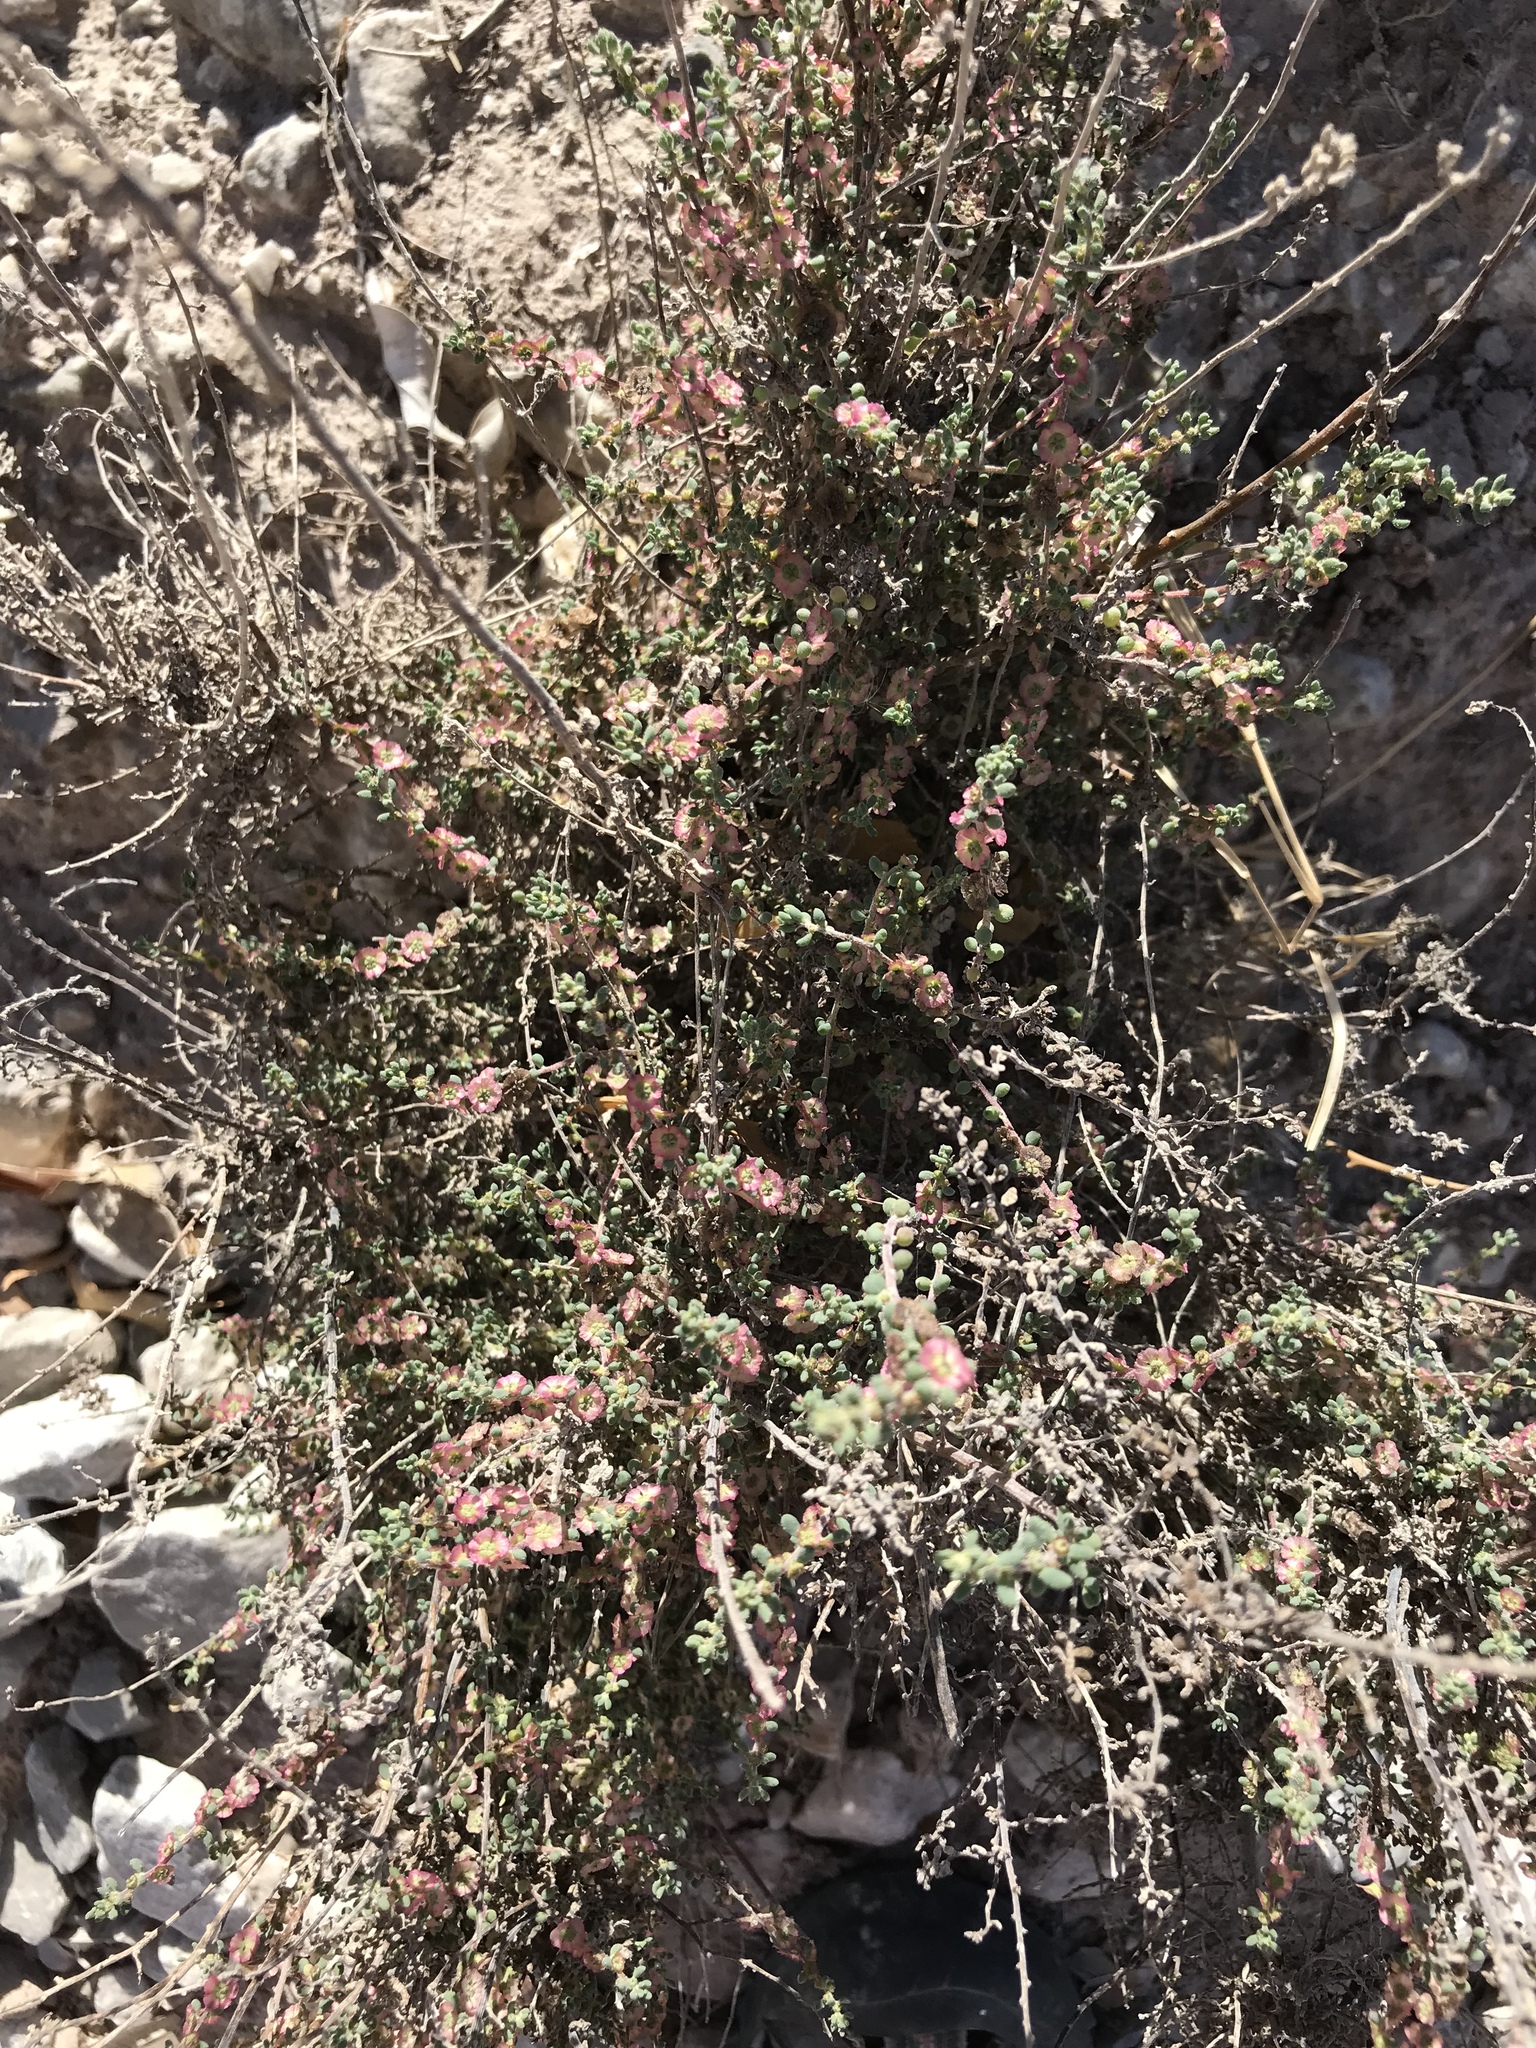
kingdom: Plantae
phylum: Tracheophyta
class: Magnoliopsida
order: Caryophyllales
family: Amaranthaceae
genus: Nitrosalsola
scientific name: Nitrosalsola vermiculata
